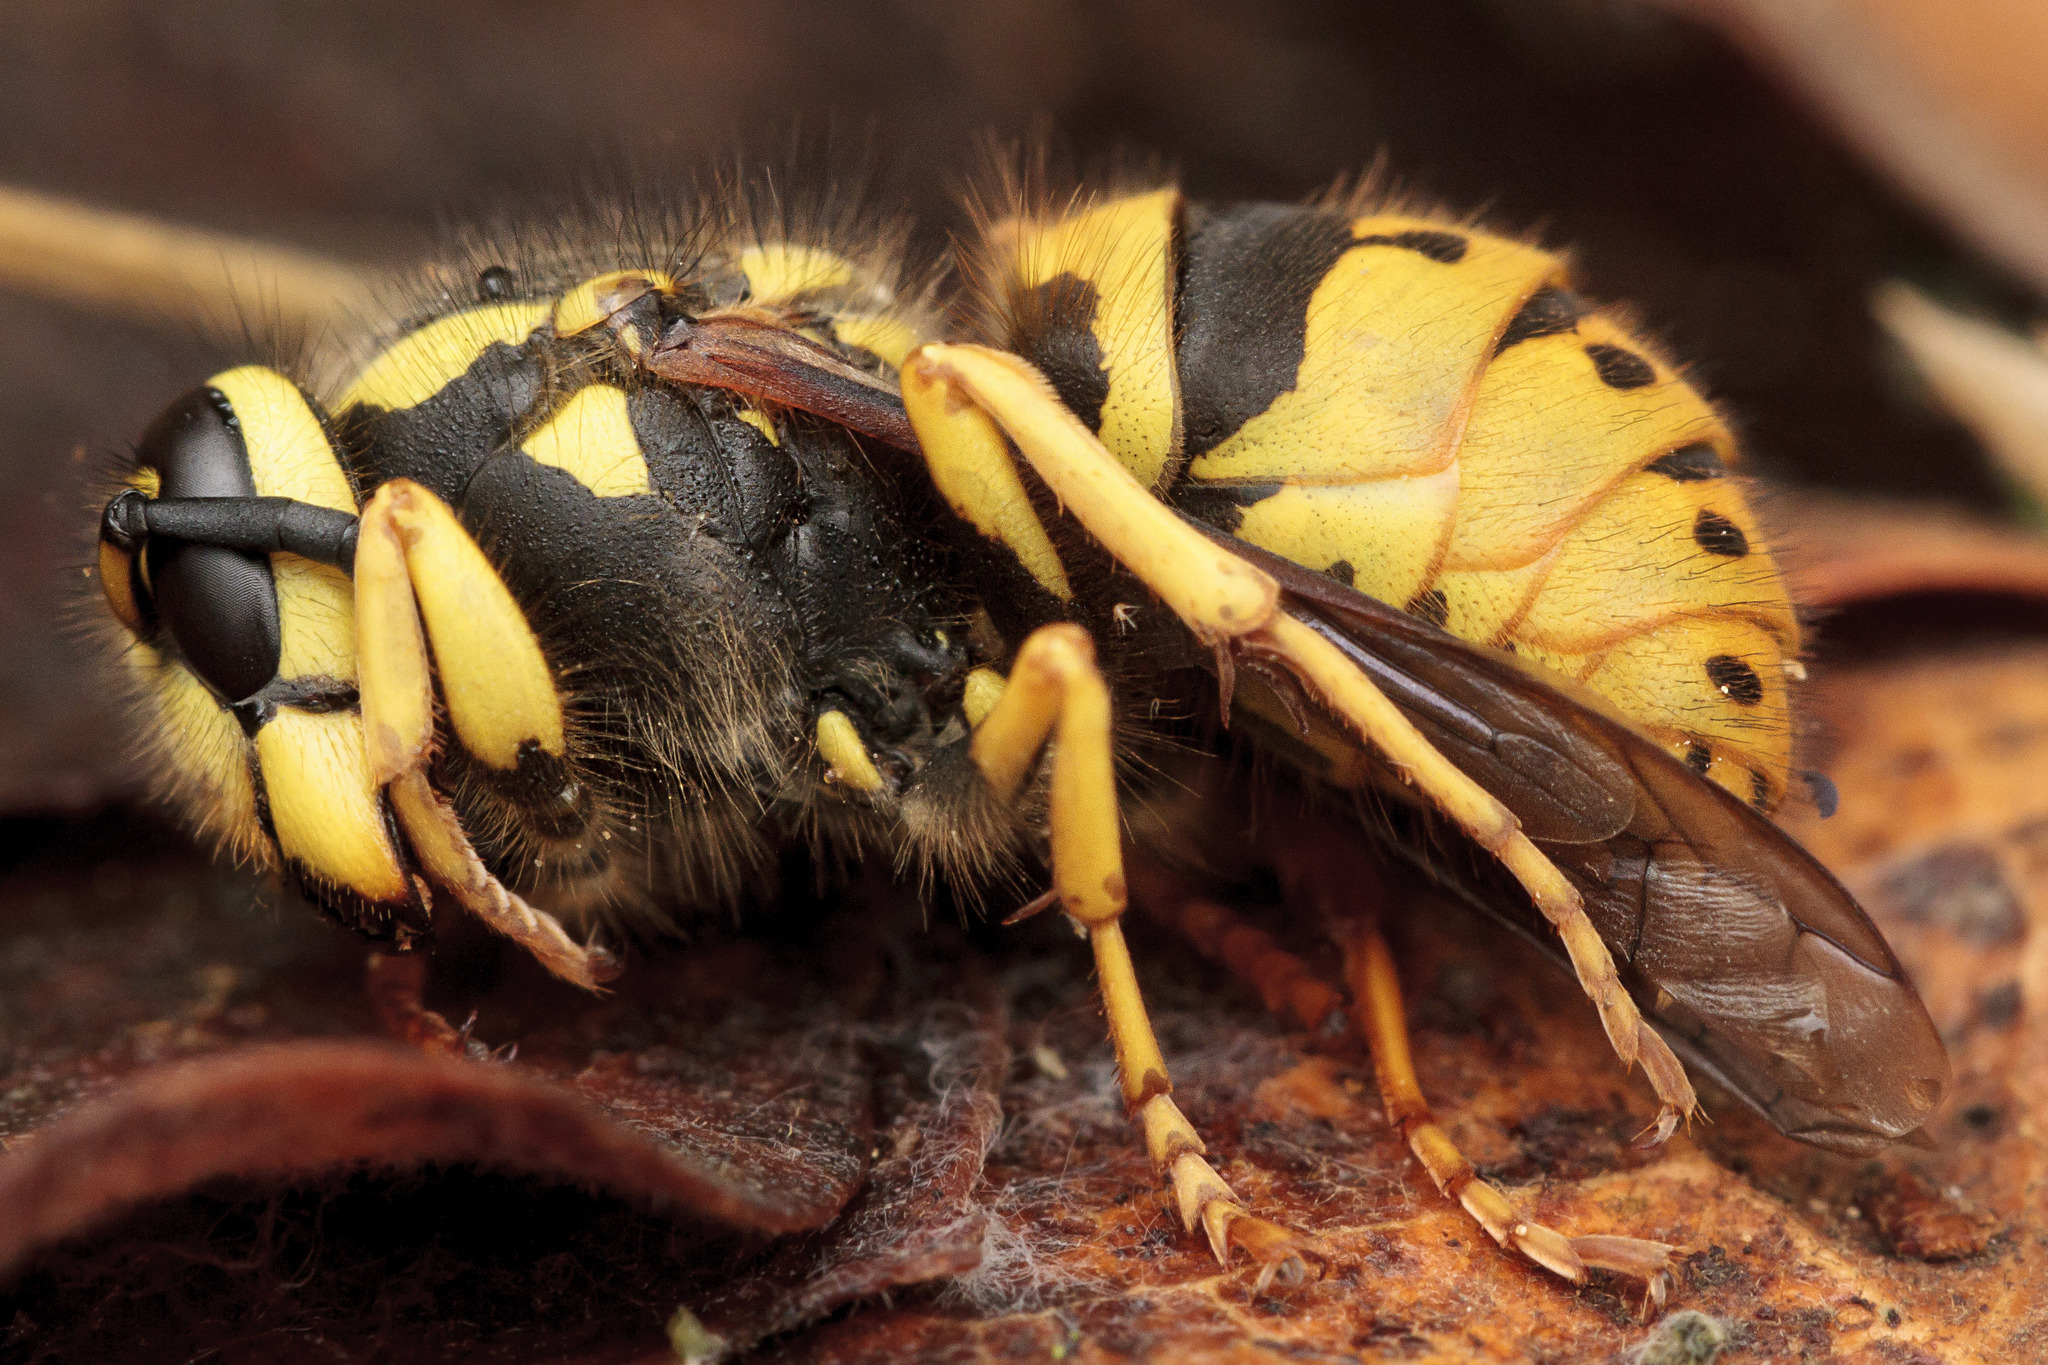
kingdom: Animalia
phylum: Arthropoda
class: Insecta
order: Hymenoptera
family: Vespidae
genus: Vespula
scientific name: Vespula pensylvanica
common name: Western yellowjacket
